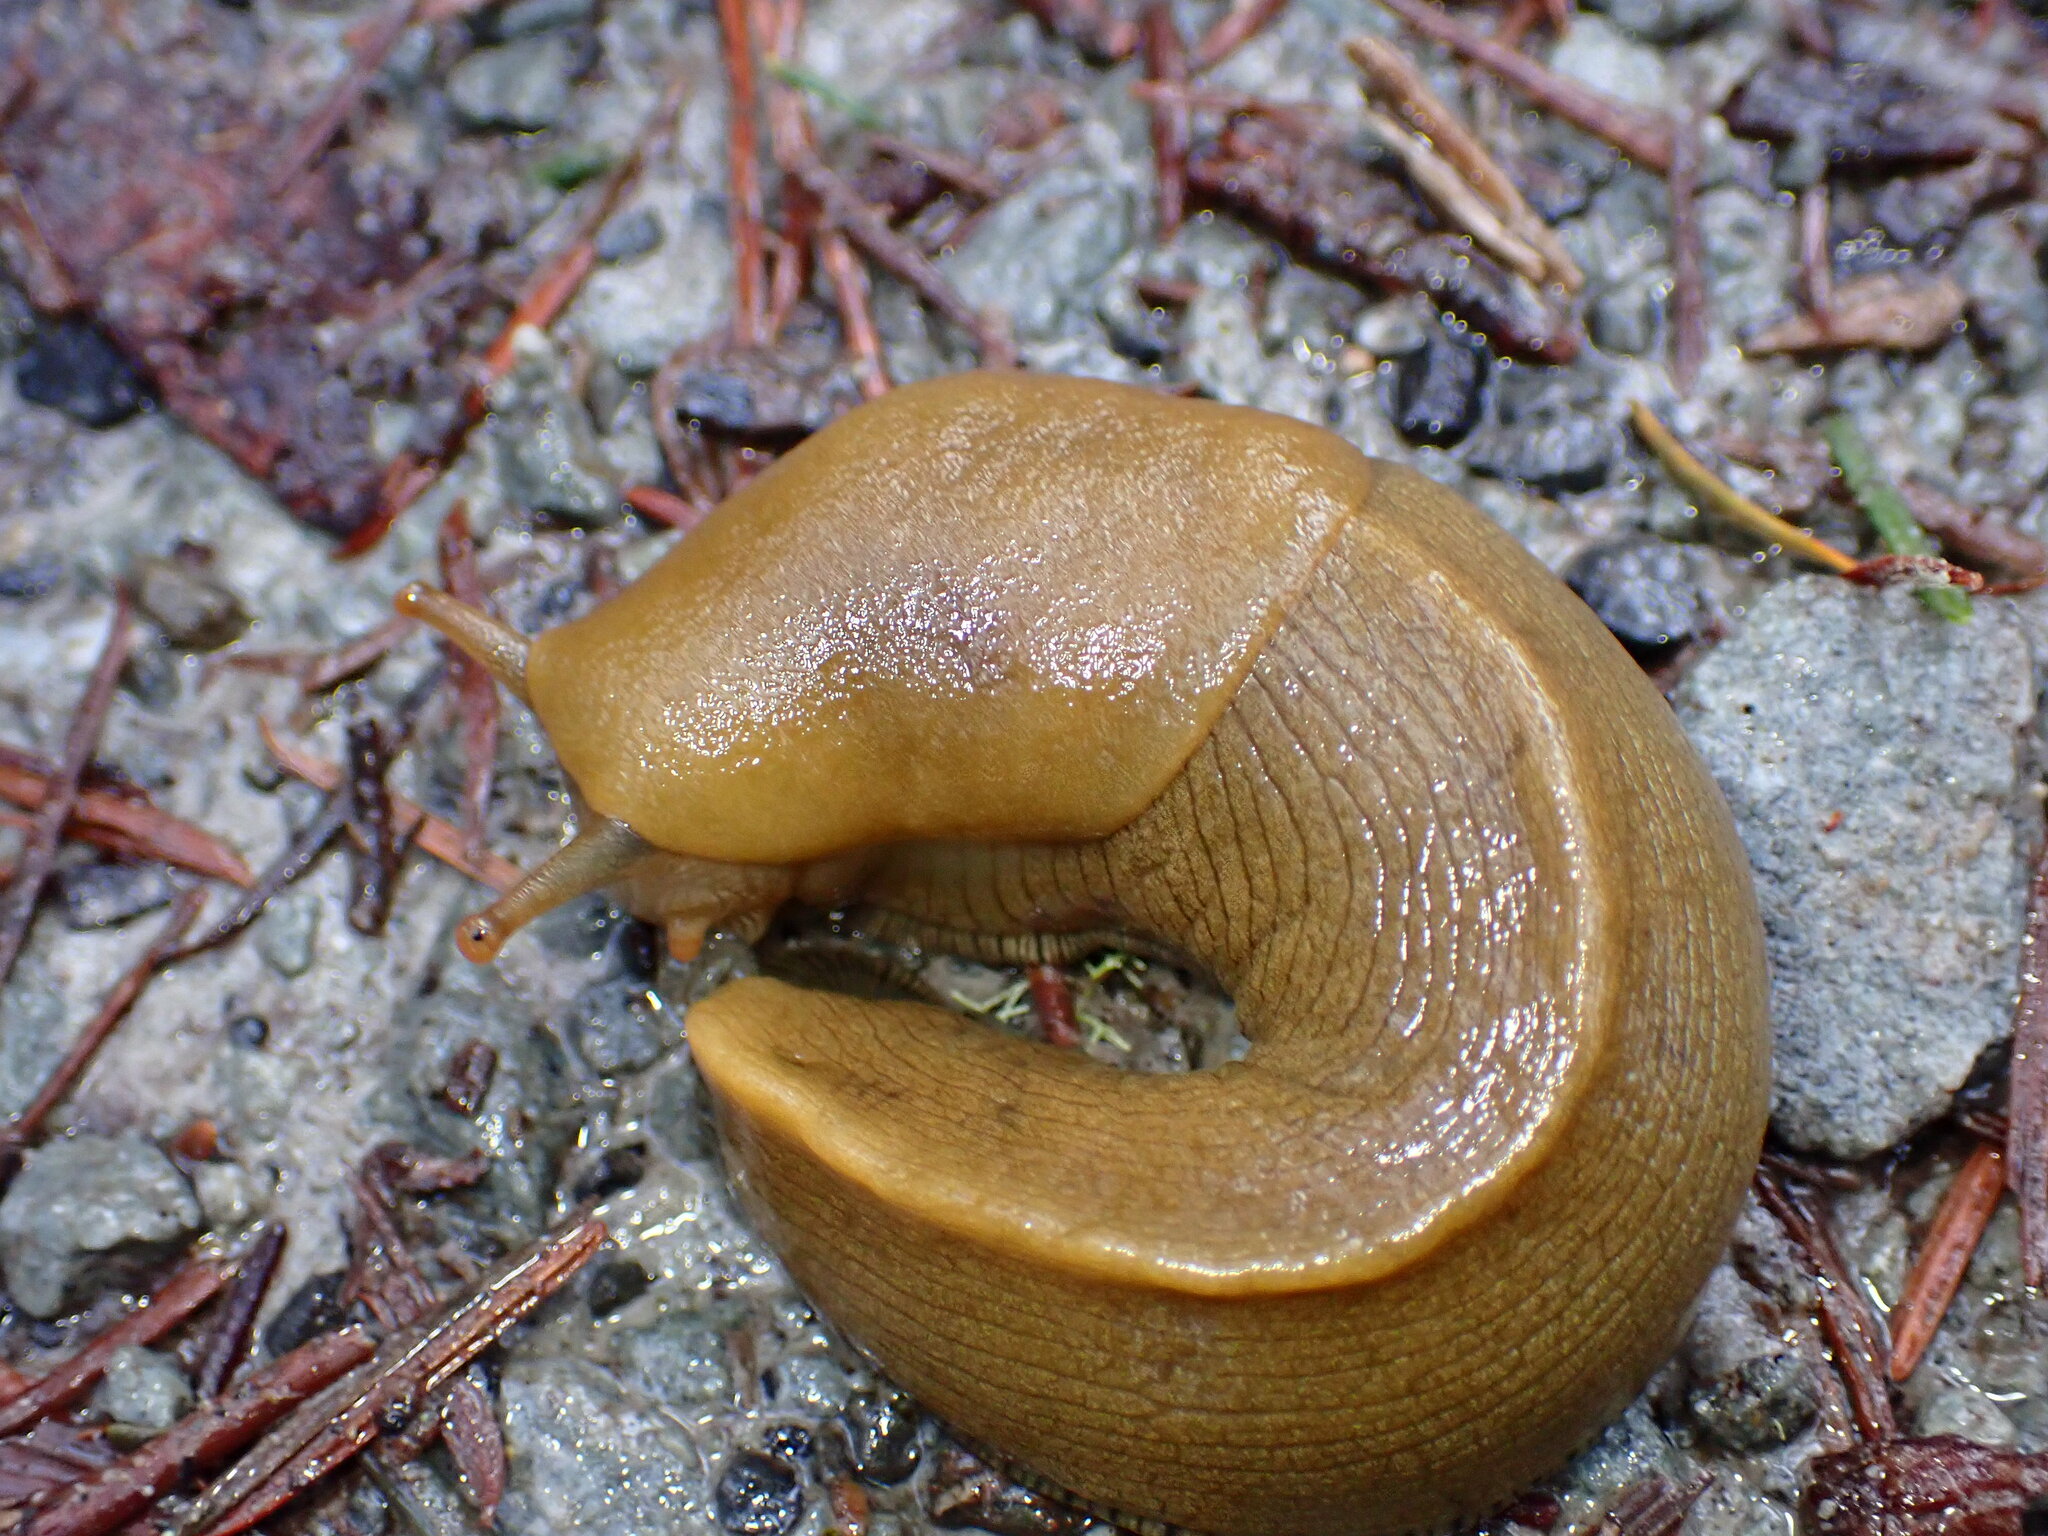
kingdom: Animalia
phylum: Mollusca
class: Gastropoda
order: Stylommatophora
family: Ariolimacidae
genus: Ariolimax
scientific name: Ariolimax buttoni
